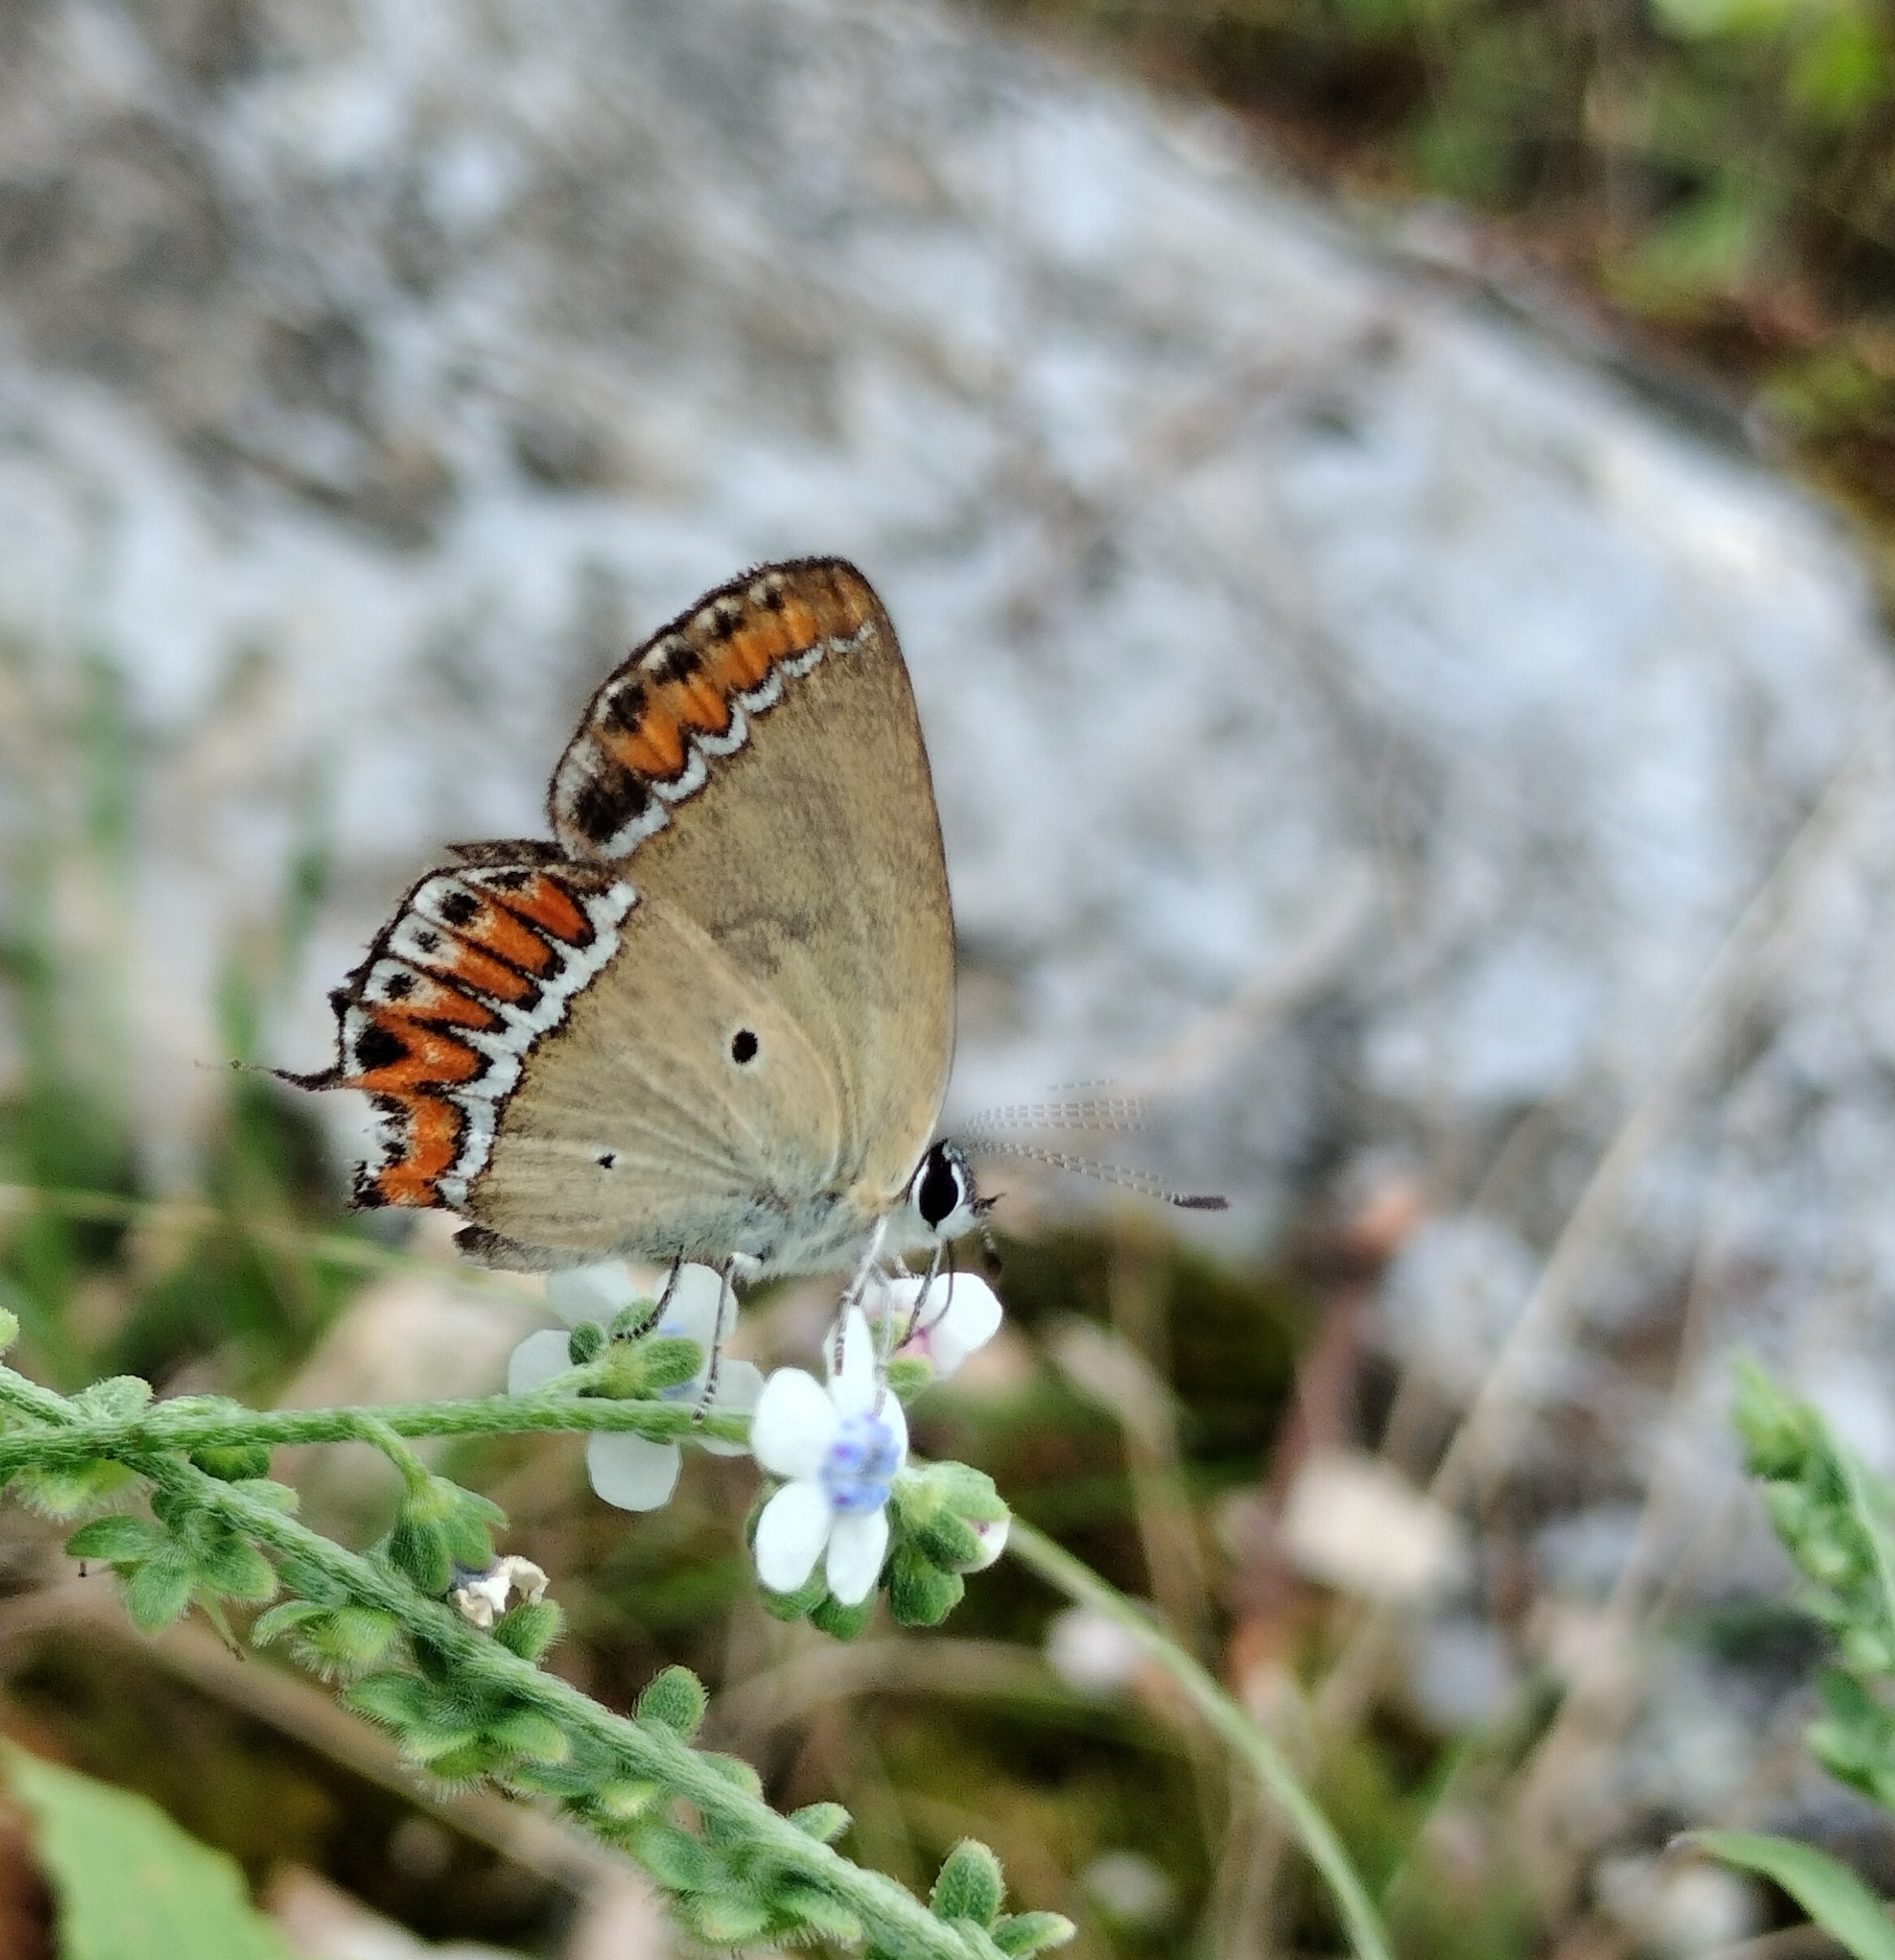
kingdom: Animalia
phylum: Arthropoda
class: Insecta
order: Lepidoptera
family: Lycaenidae
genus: Heliophorus
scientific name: Heliophorus sena
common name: Sorrel sapphire
